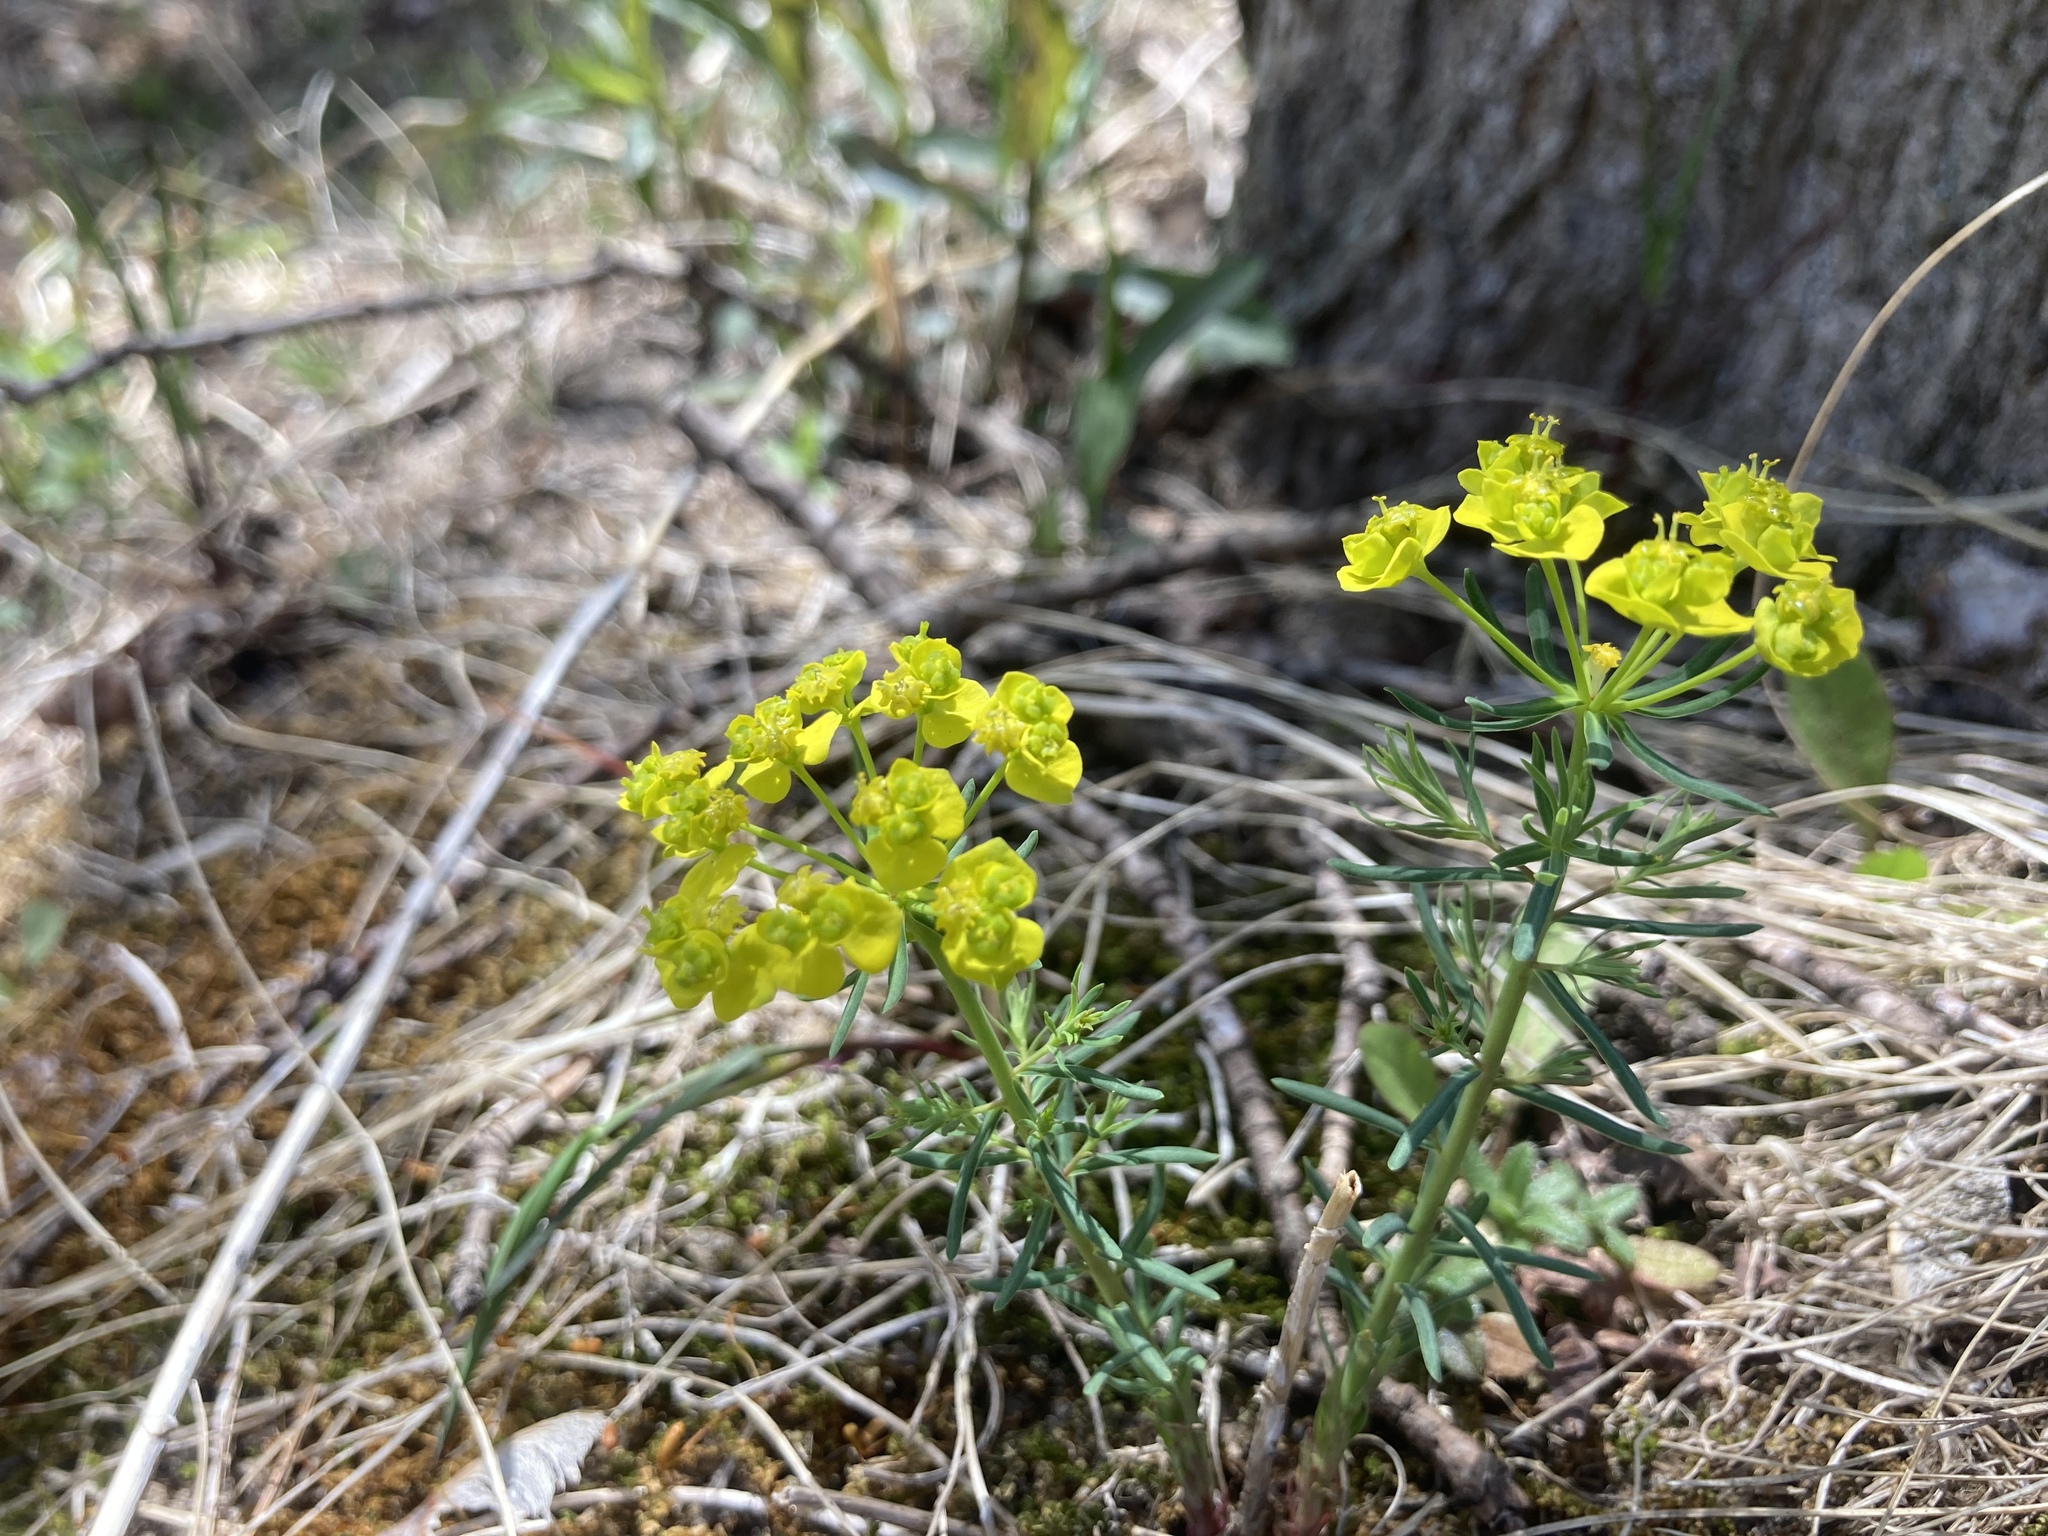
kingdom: Plantae
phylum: Tracheophyta
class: Magnoliopsida
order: Malpighiales
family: Euphorbiaceae
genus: Euphorbia
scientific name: Euphorbia virgata
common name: Leafy spurge
